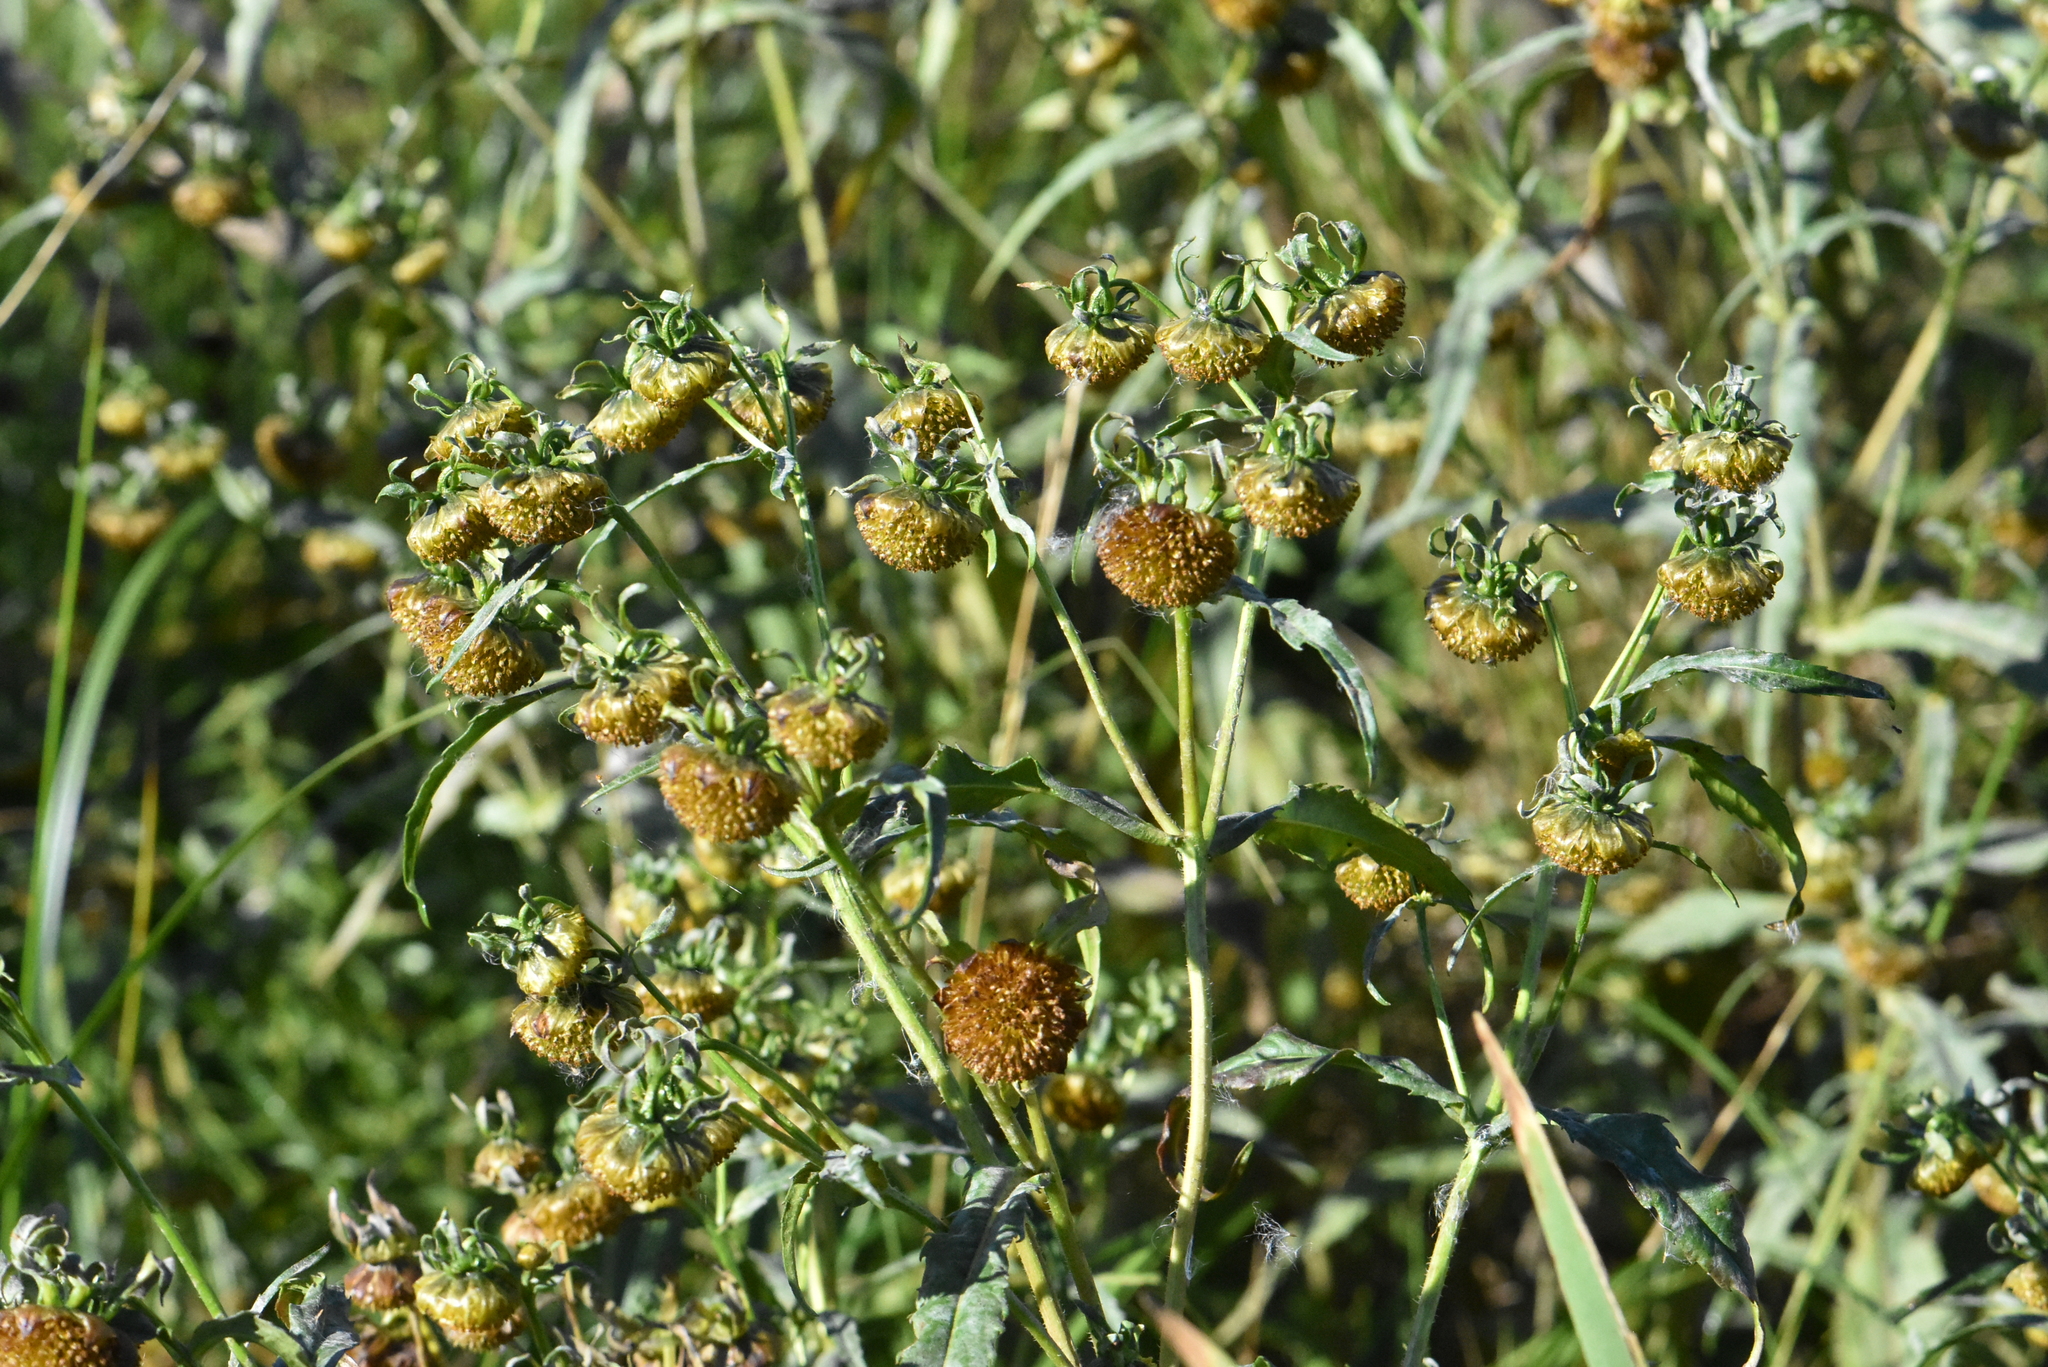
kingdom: Plantae
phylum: Tracheophyta
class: Magnoliopsida
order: Asterales
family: Asteraceae
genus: Bidens
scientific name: Bidens cernua
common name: Nodding bur-marigold
